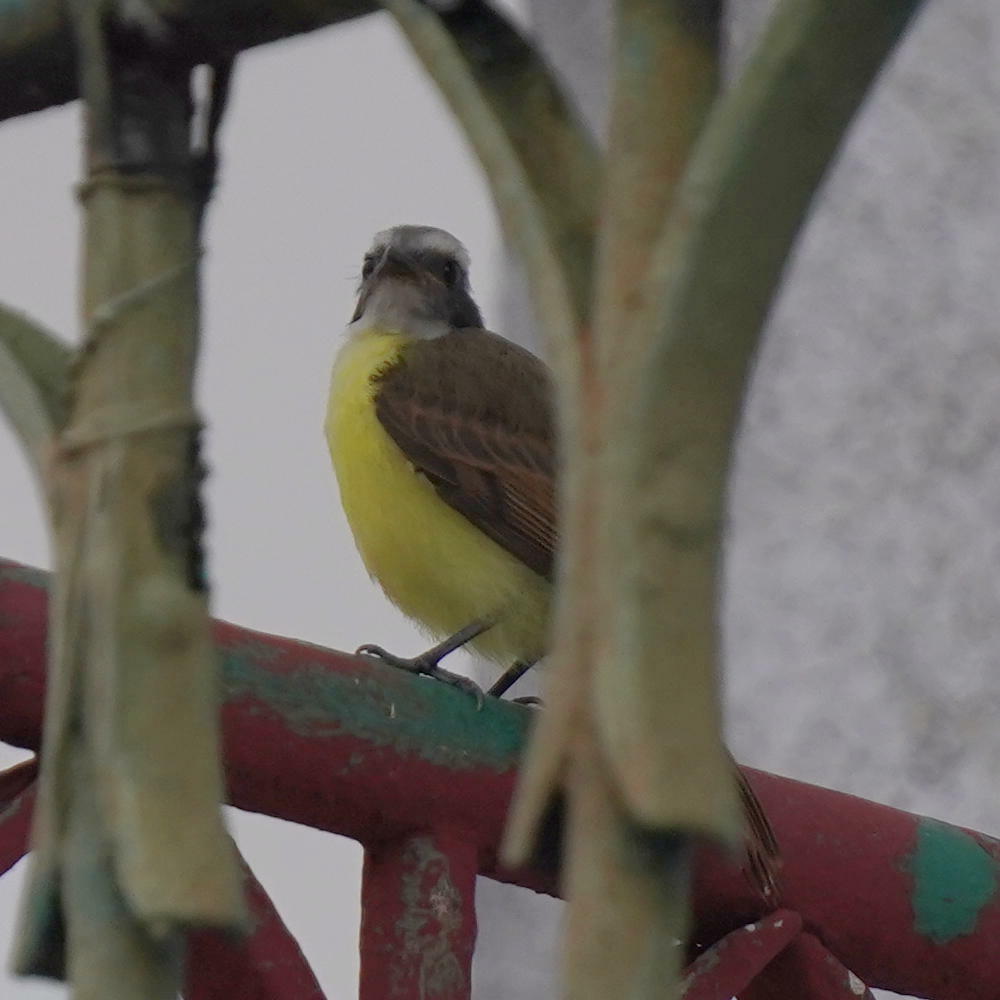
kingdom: Animalia
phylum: Chordata
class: Aves
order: Passeriformes
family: Tyrannidae
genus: Myiozetetes
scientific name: Myiozetetes similis
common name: Social flycatcher
